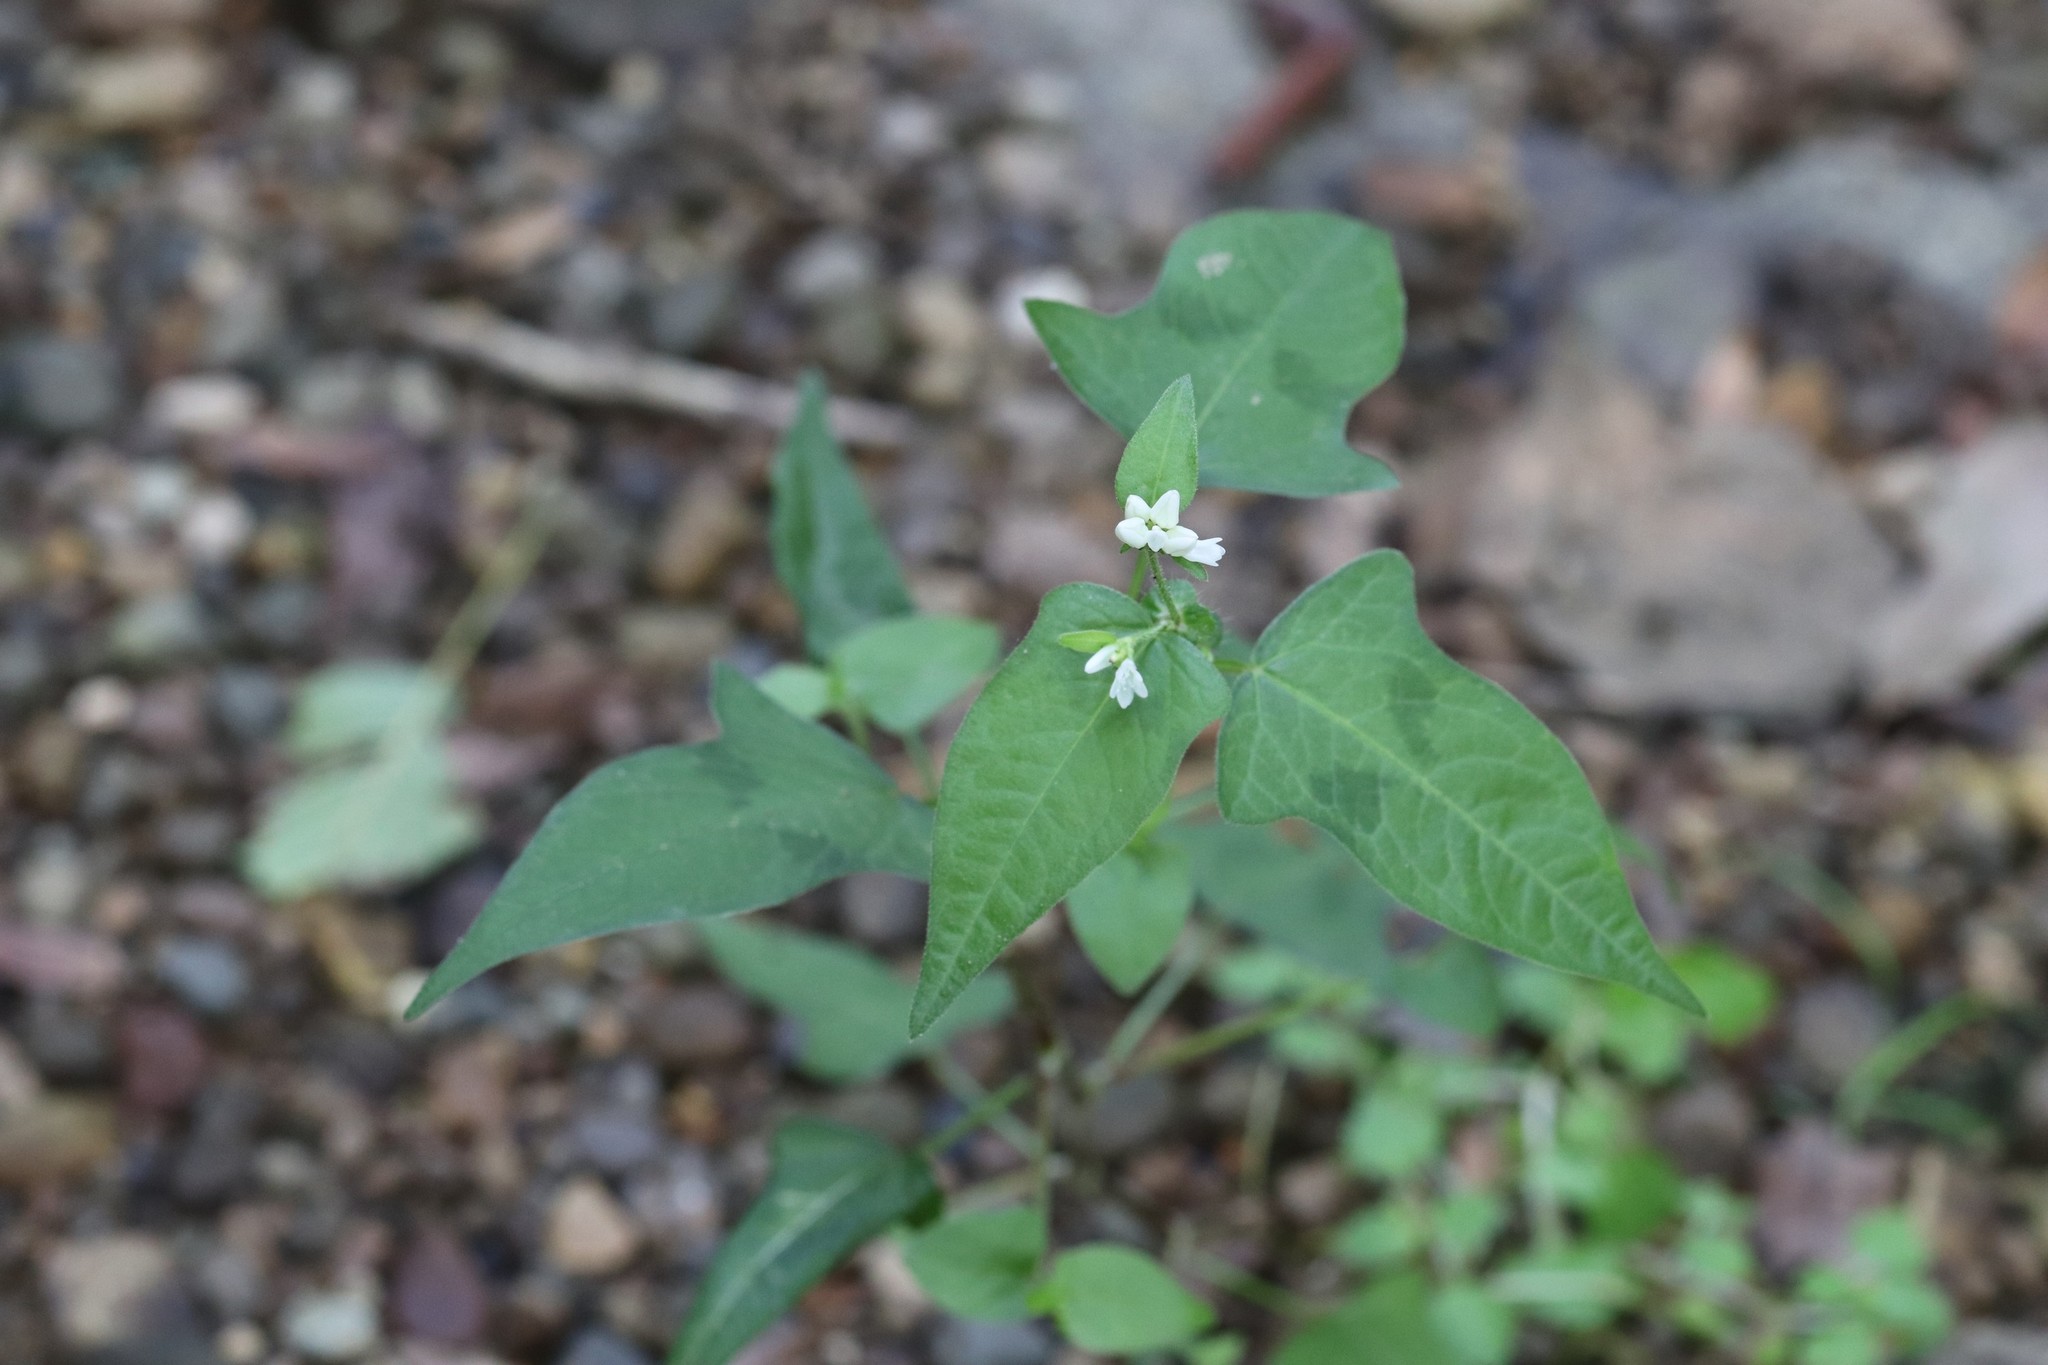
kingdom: Plantae
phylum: Tracheophyta
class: Magnoliopsida
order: Caryophyllales
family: Polygonaceae
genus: Persicaria
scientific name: Persicaria thunbergii
